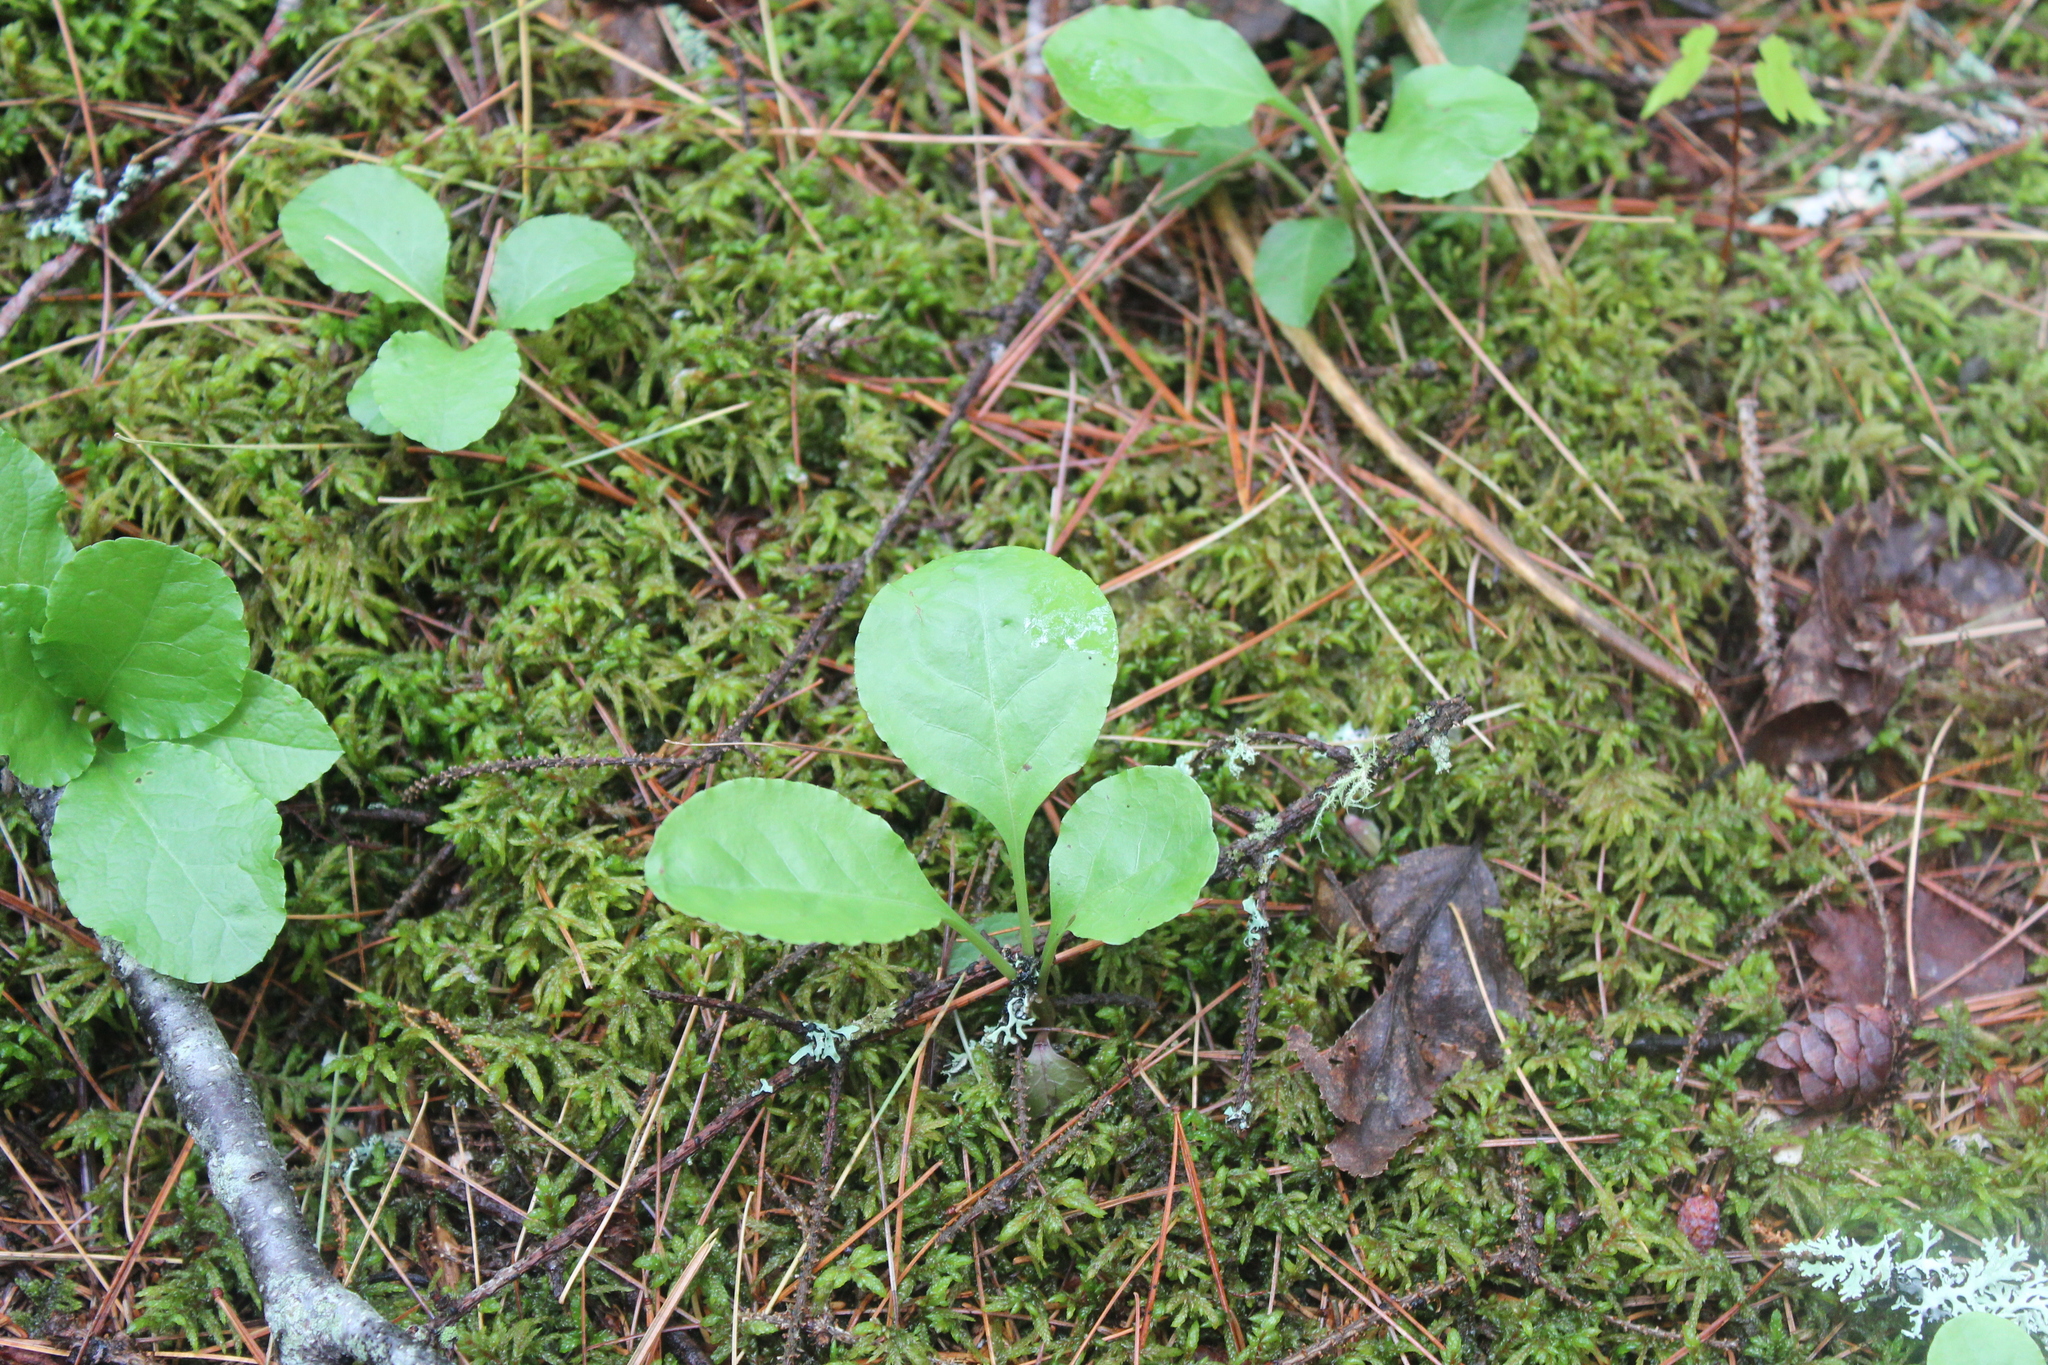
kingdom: Plantae
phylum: Tracheophyta
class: Magnoliopsida
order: Ericales
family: Ericaceae
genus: Pyrola
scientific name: Pyrola elliptica
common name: Shinleaf
